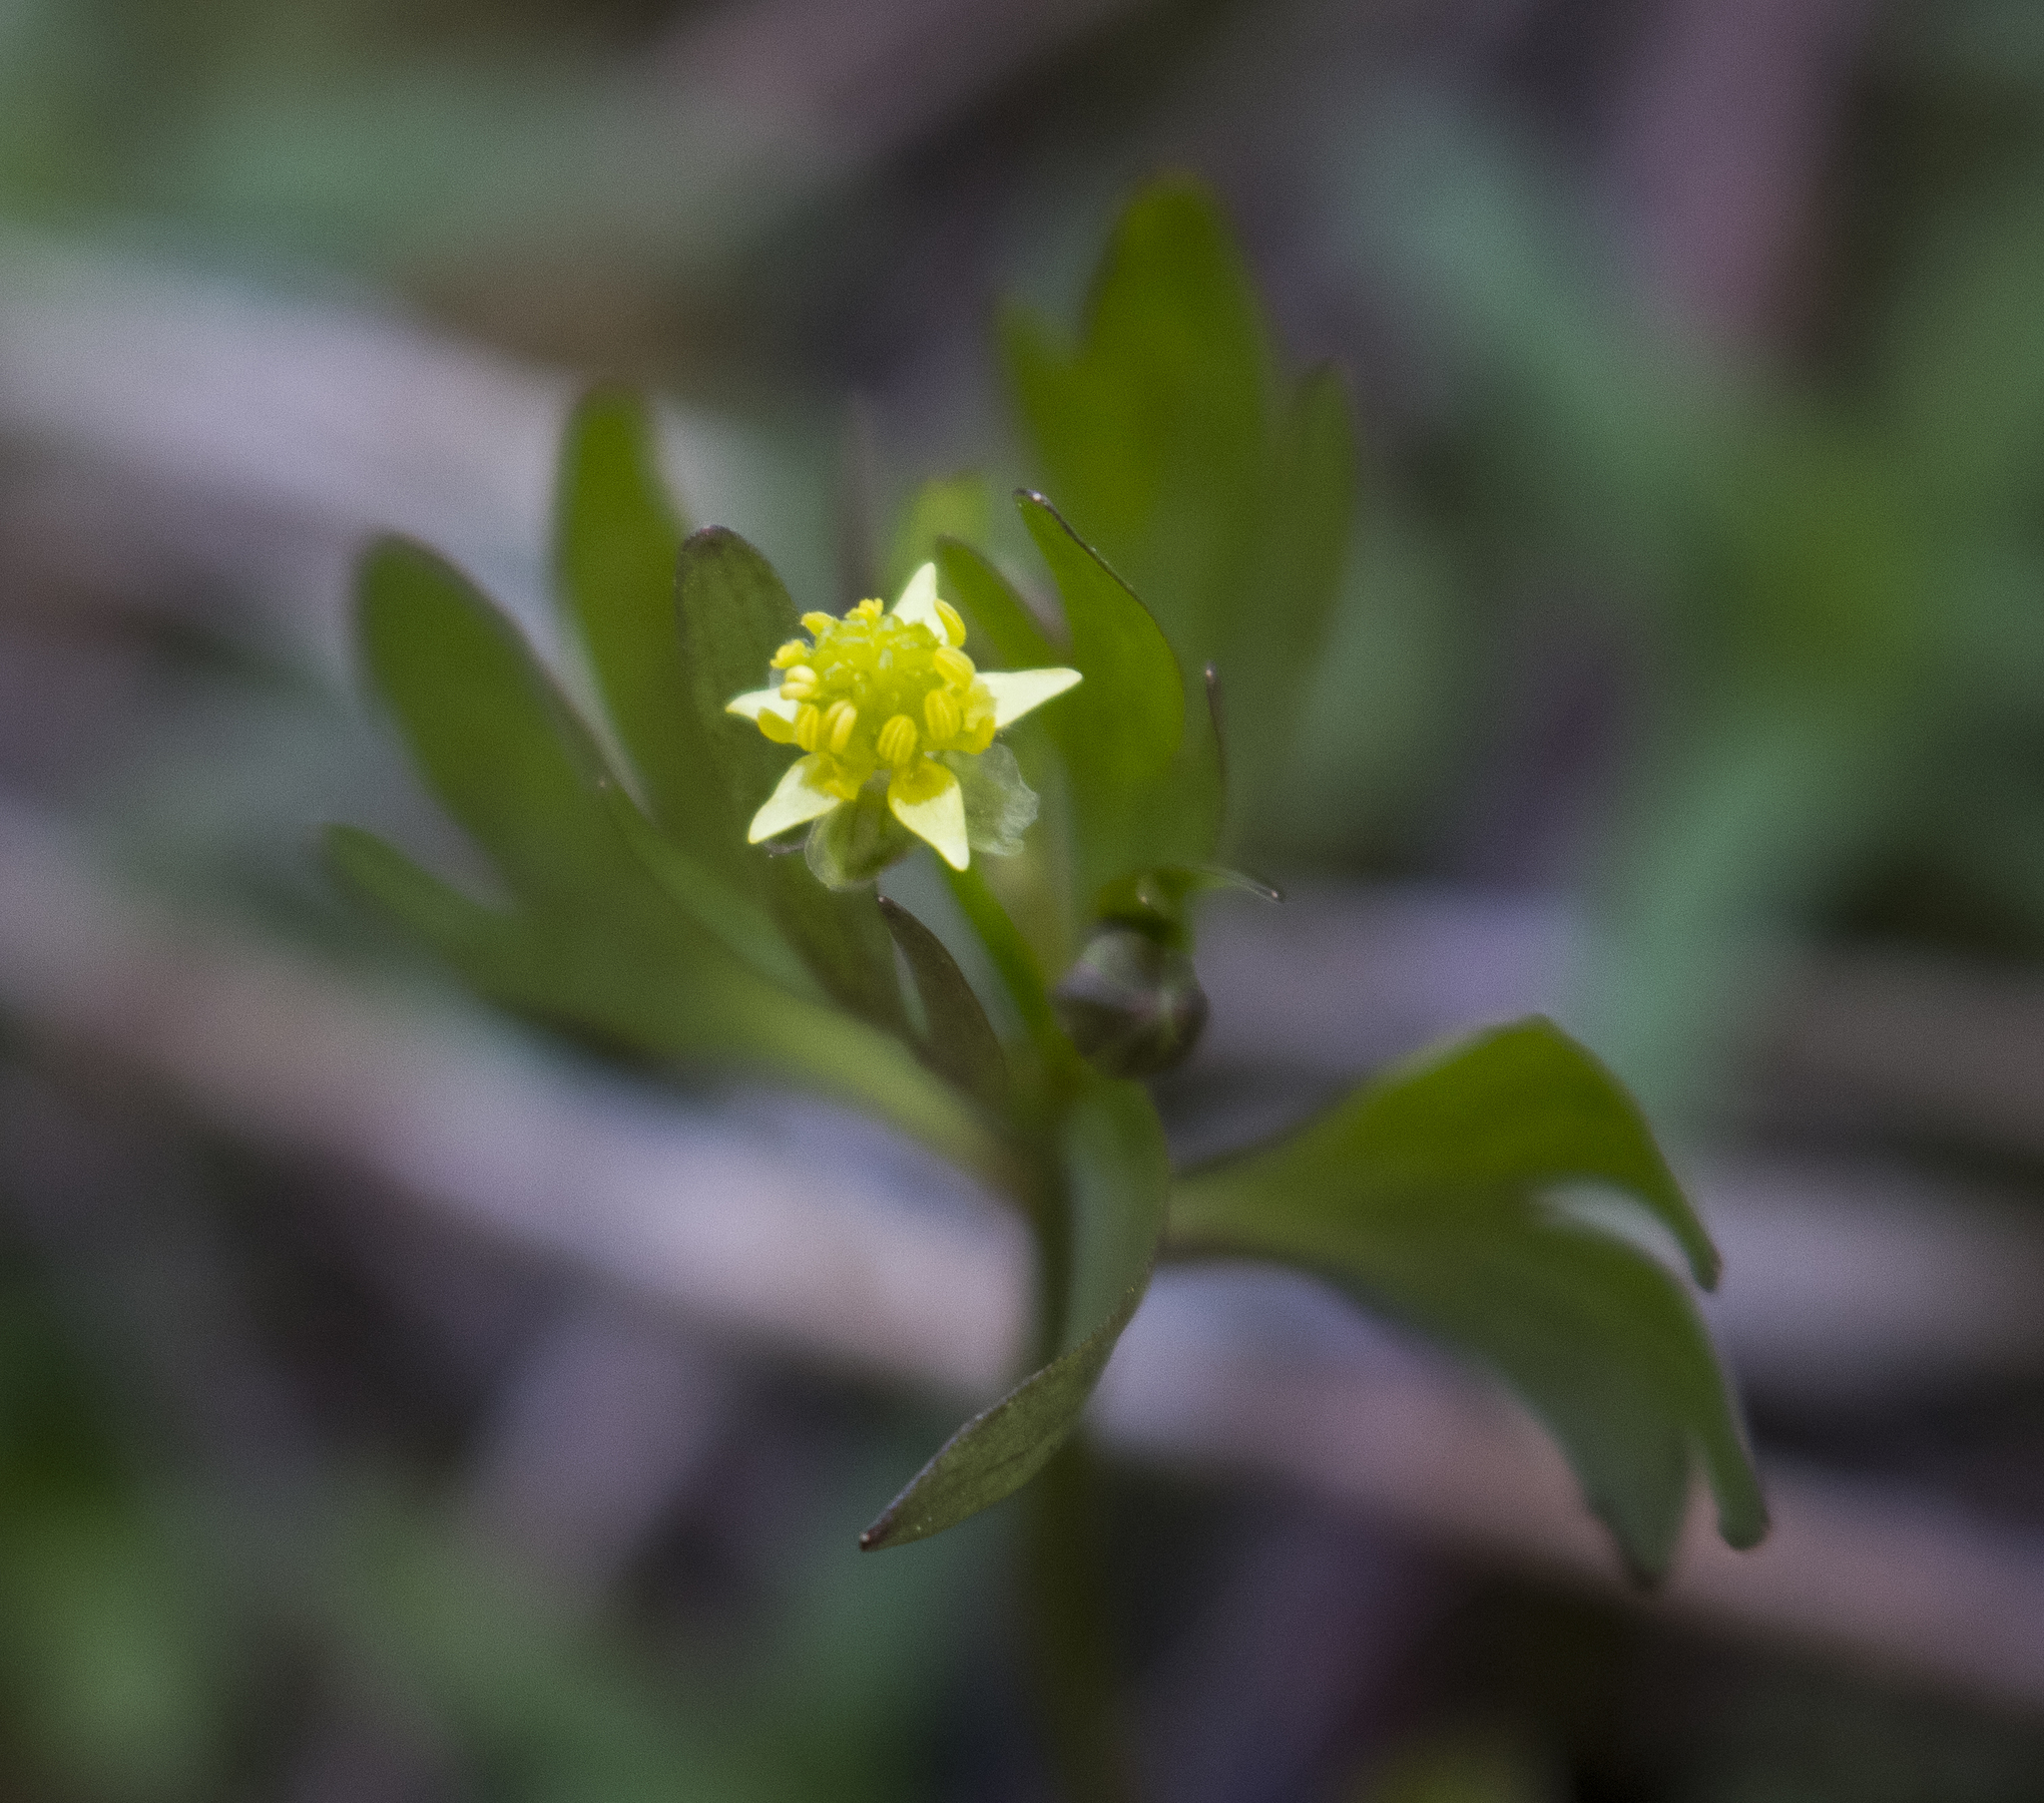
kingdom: Plantae
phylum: Tracheophyta
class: Magnoliopsida
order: Ranunculales
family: Ranunculaceae
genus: Ranunculus
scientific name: Ranunculus abortivus
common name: Early wood buttercup
